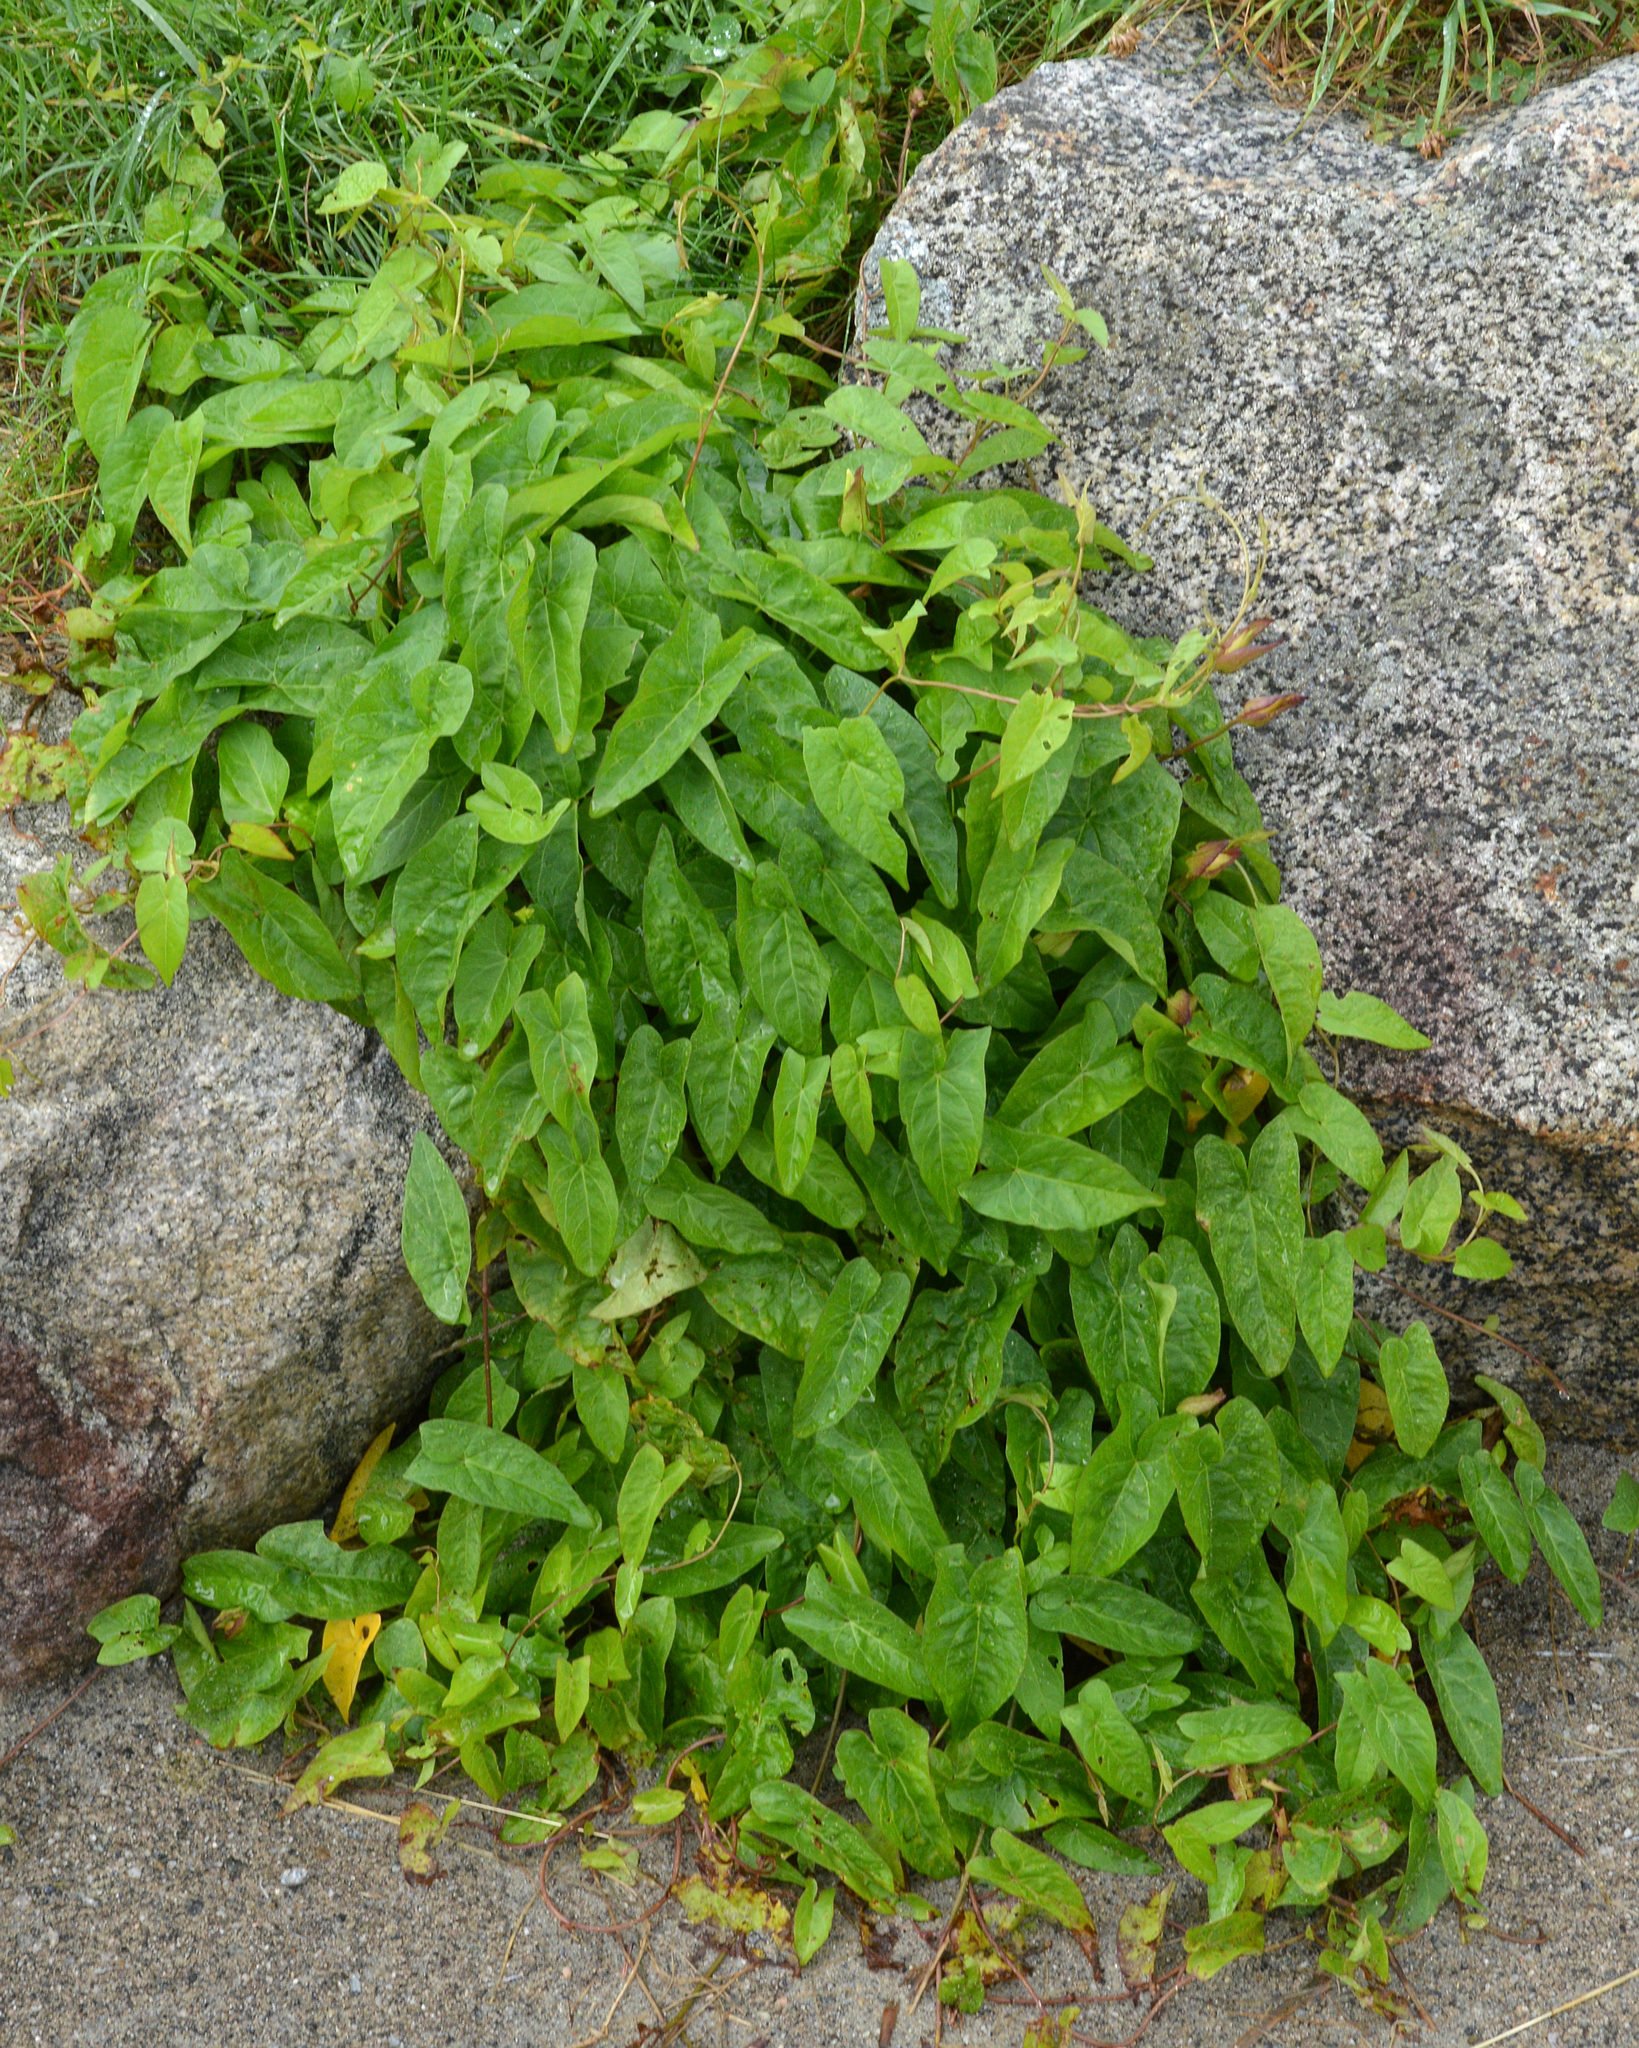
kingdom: Plantae
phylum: Tracheophyta
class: Magnoliopsida
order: Solanales
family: Convolvulaceae
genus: Calystegia
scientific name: Calystegia sepium
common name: Hedge bindweed
